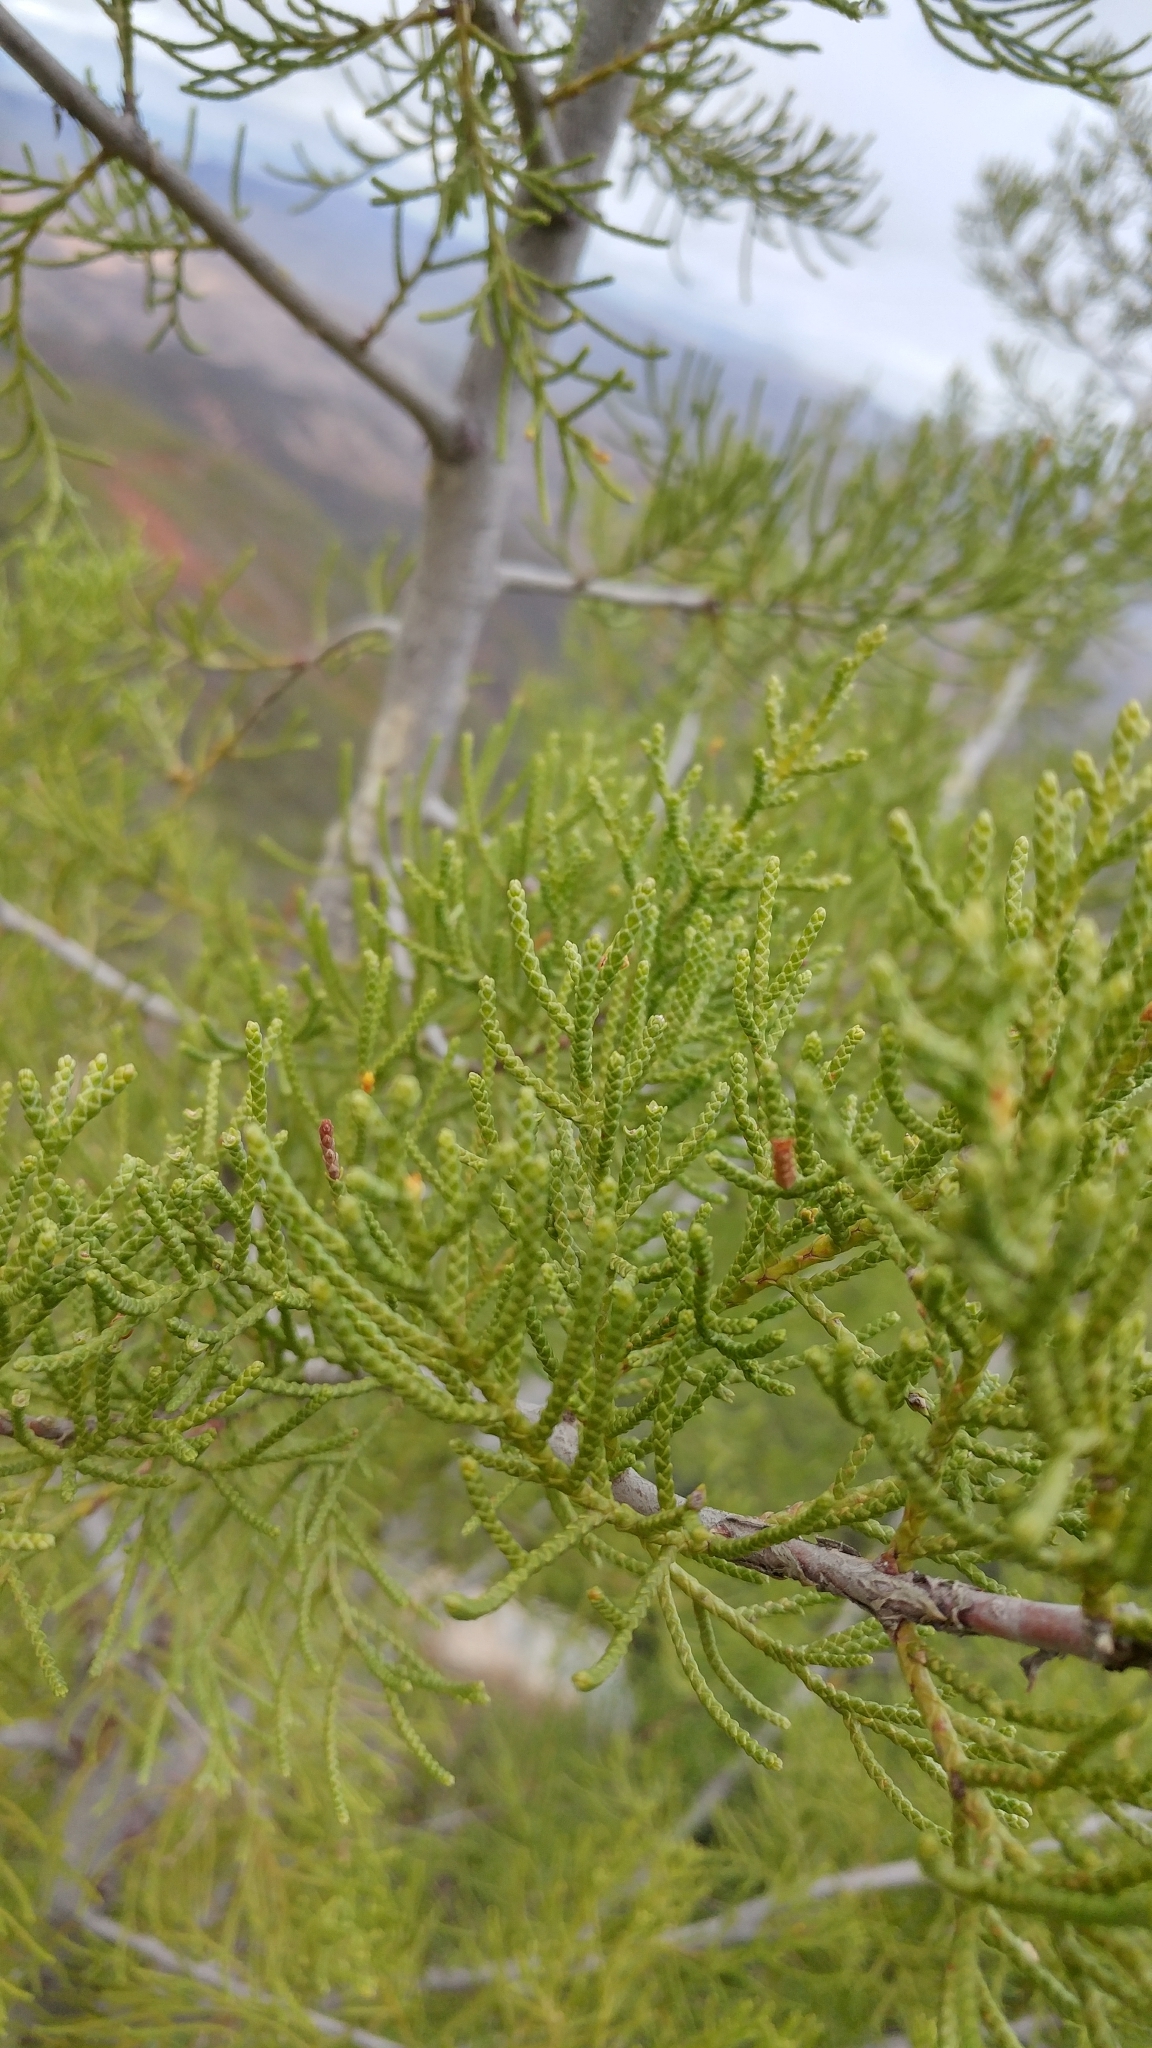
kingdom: Plantae
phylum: Tracheophyta
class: Pinopsida
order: Pinales
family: Cupressaceae
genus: Cupressus
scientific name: Cupressus guadalupensis
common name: Forbes cypress
